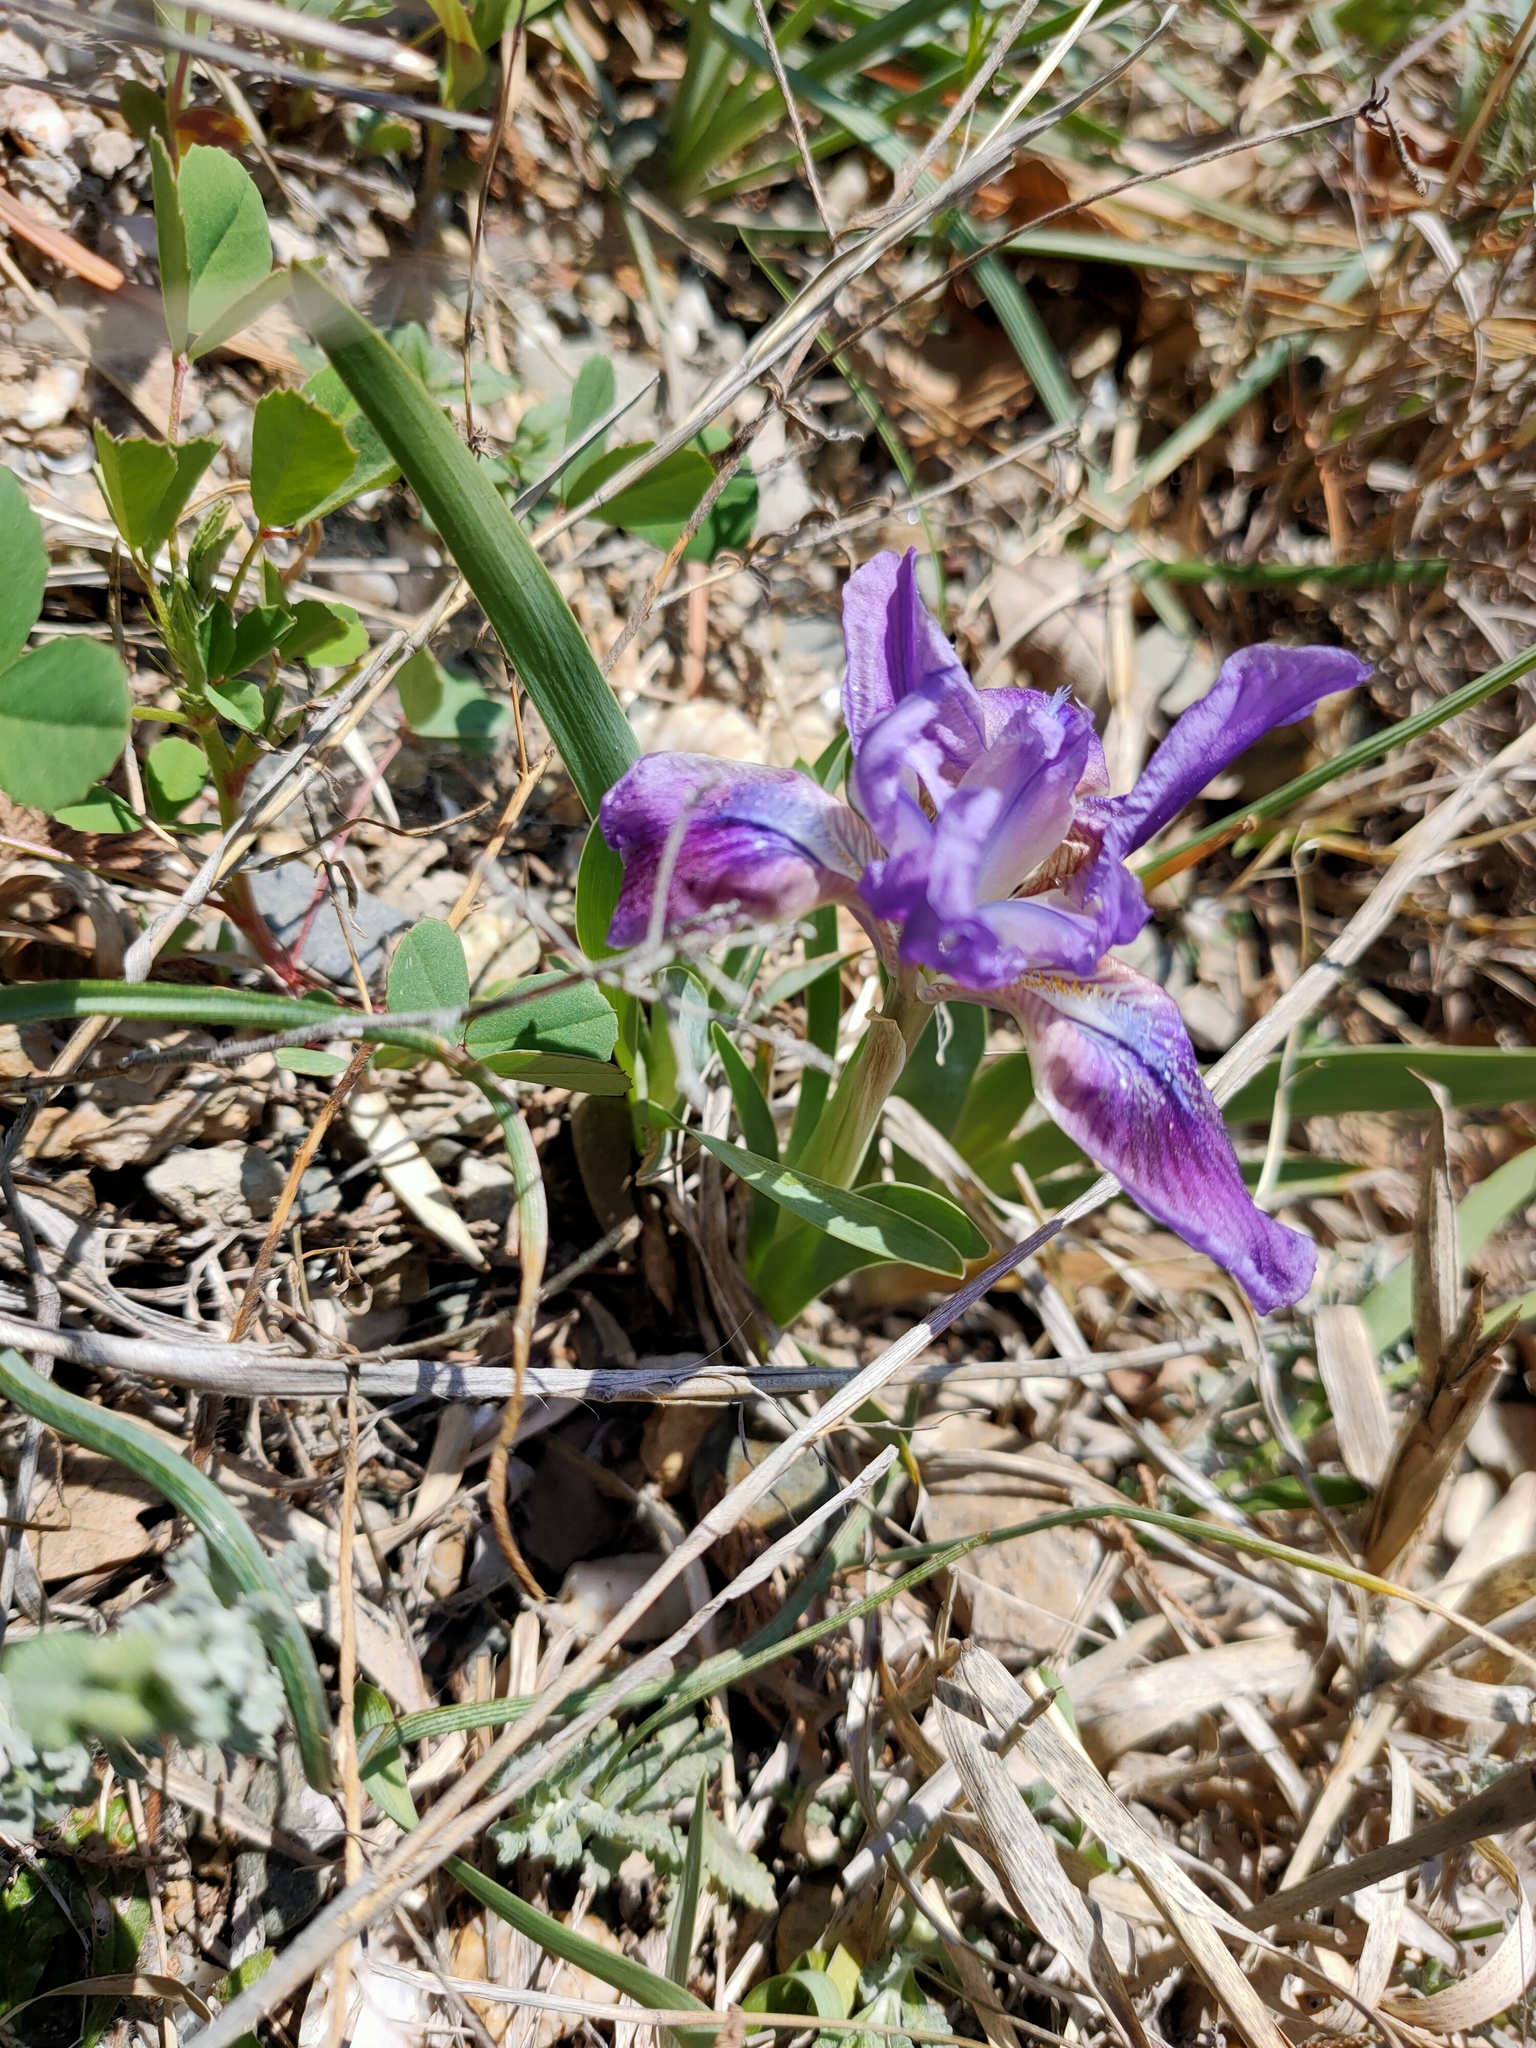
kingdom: Plantae
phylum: Tracheophyta
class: Liliopsida
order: Asparagales
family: Iridaceae
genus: Iris
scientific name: Iris pumila
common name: Dwarf iris
